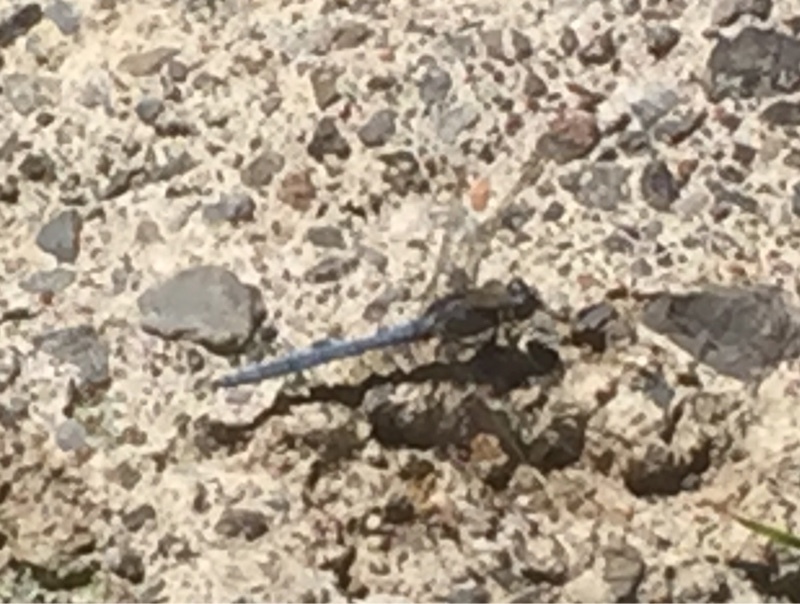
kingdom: Animalia
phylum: Arthropoda
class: Insecta
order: Odonata
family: Libellulidae
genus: Orthetrum
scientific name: Orthetrum chrysostigma
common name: Epaulet skimmer
